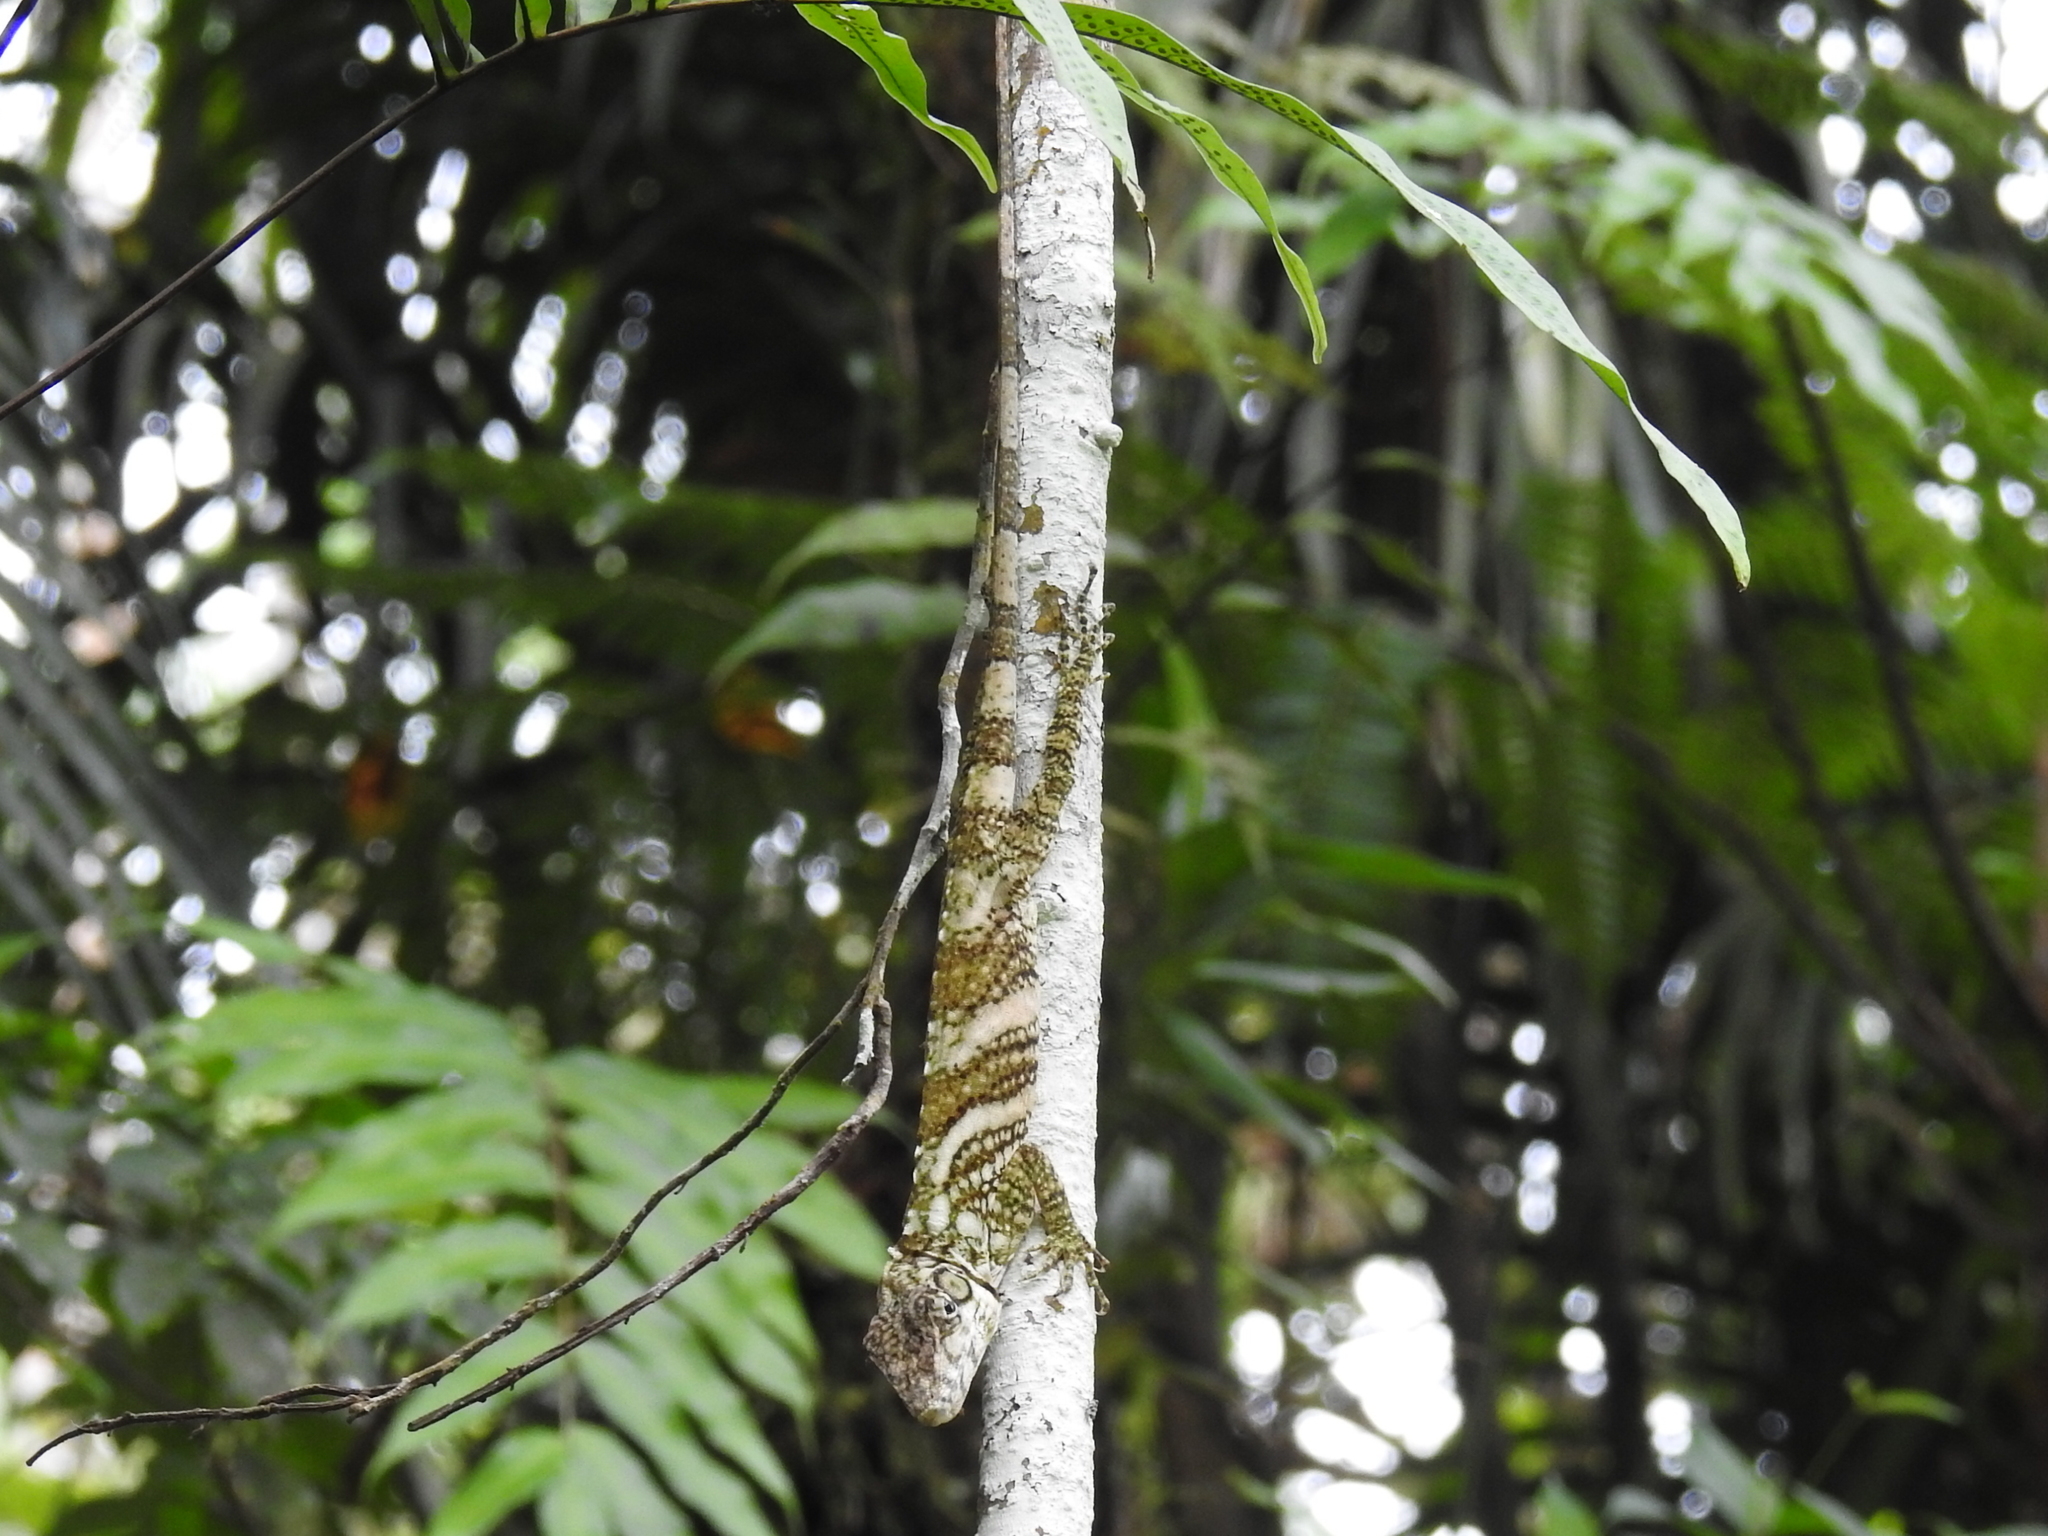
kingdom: Animalia
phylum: Chordata
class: Squamata
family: Dactyloidae
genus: Anolis
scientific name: Anolis savagei
